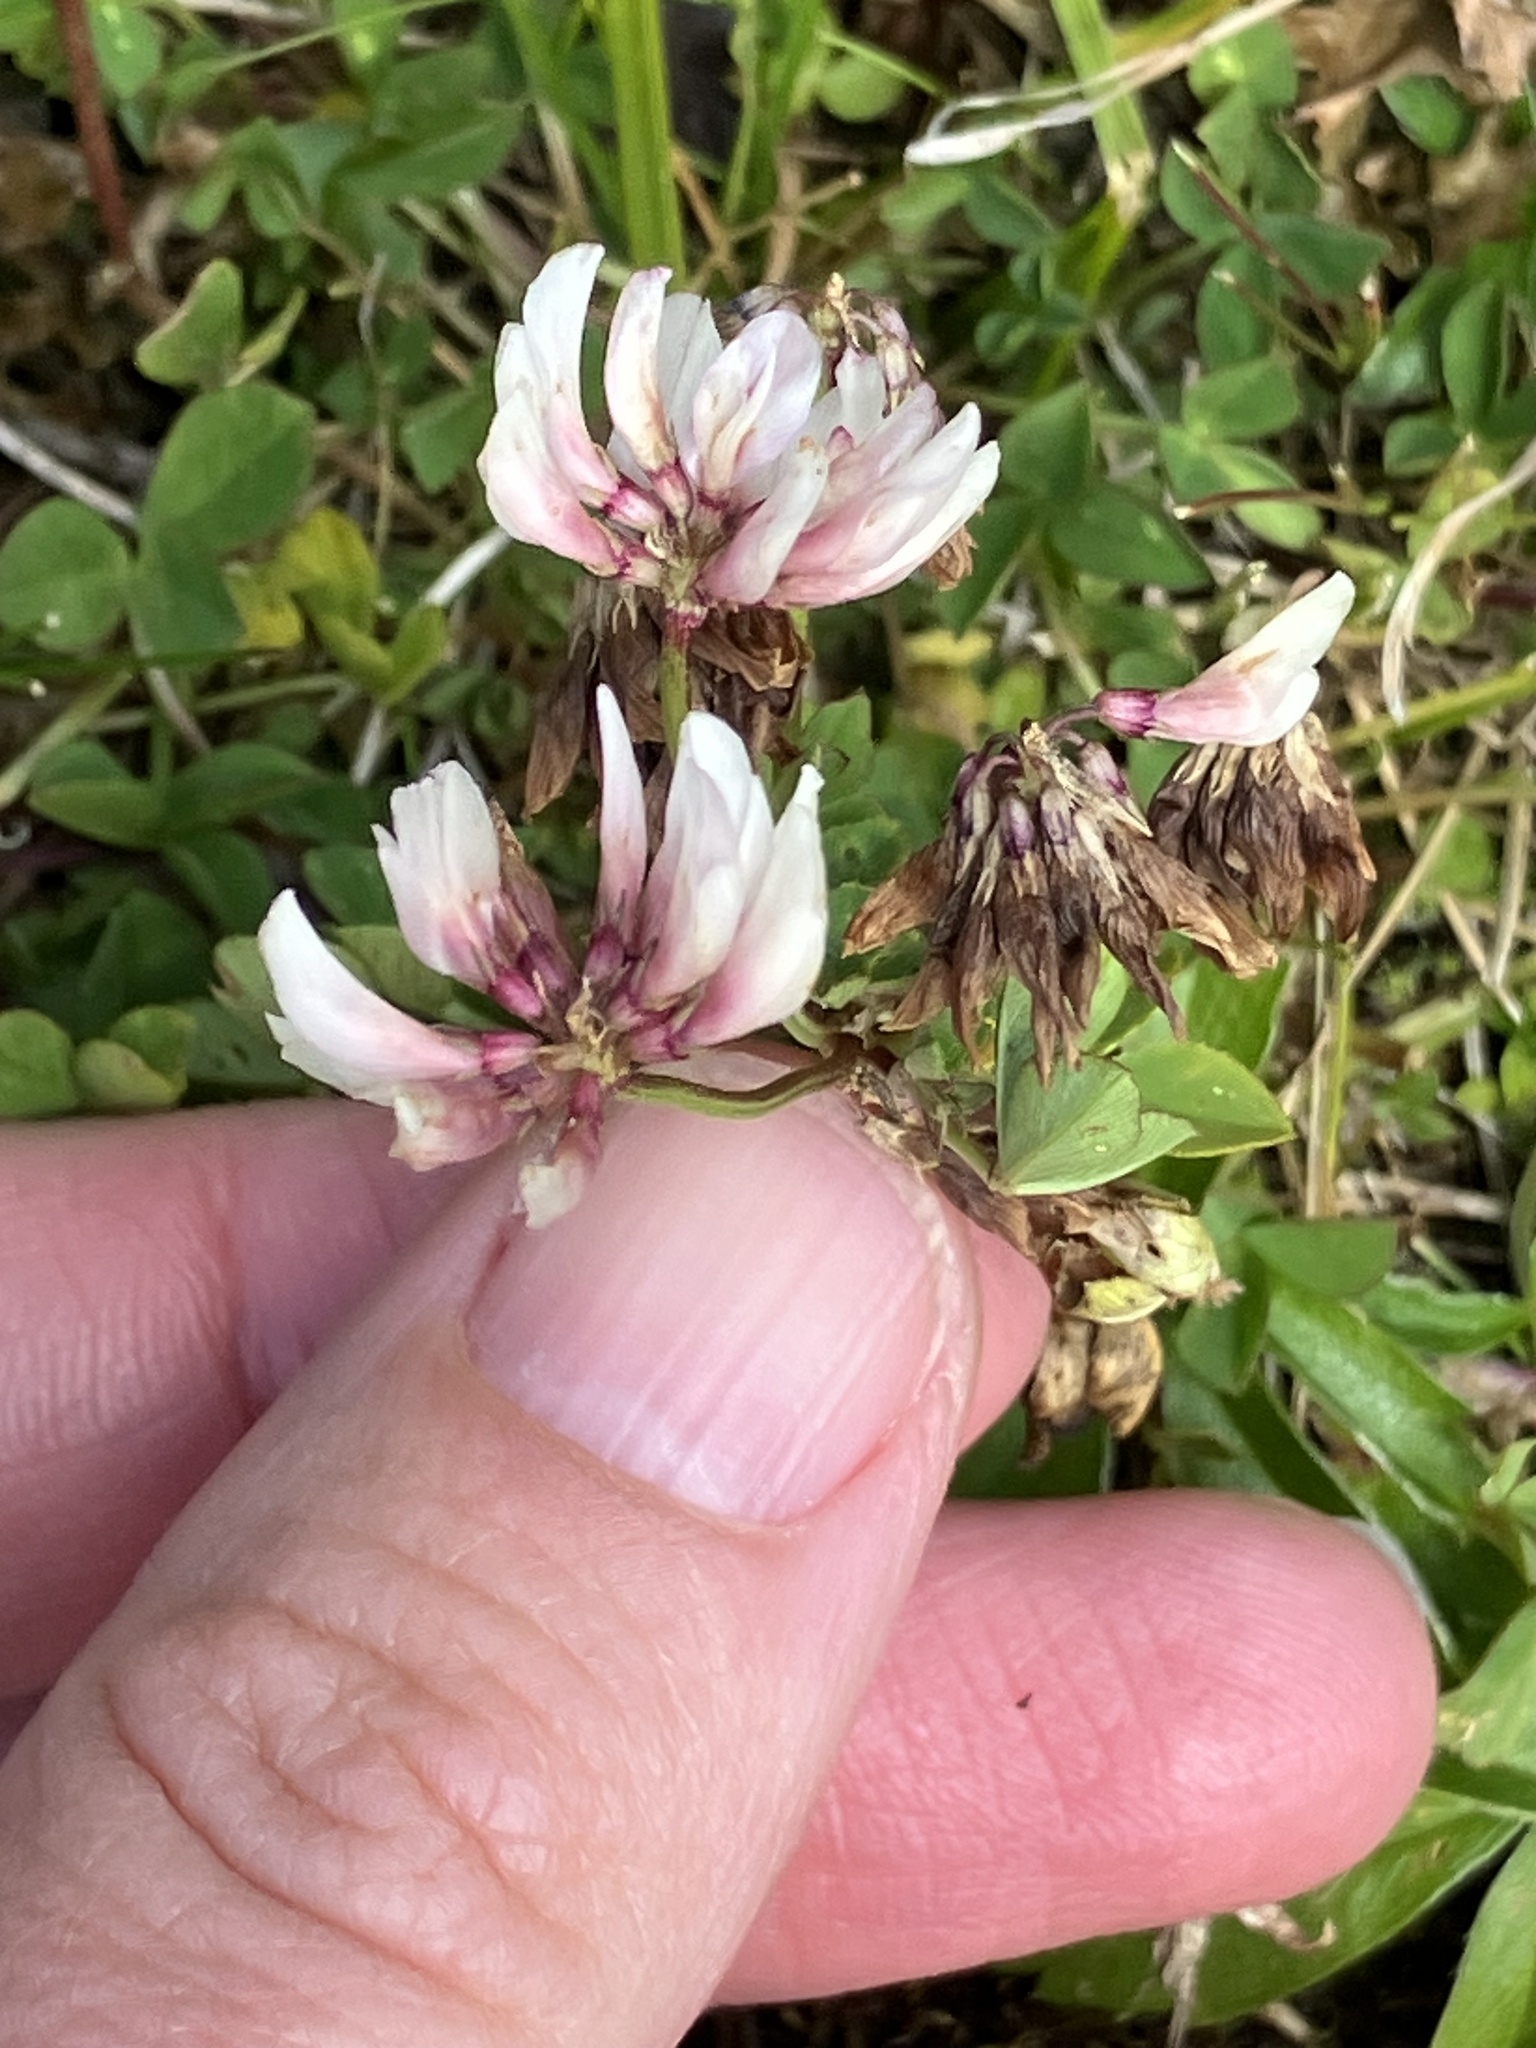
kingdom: Plantae
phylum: Tracheophyta
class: Magnoliopsida
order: Fabales
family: Fabaceae
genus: Trifolium
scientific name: Trifolium pallescens
